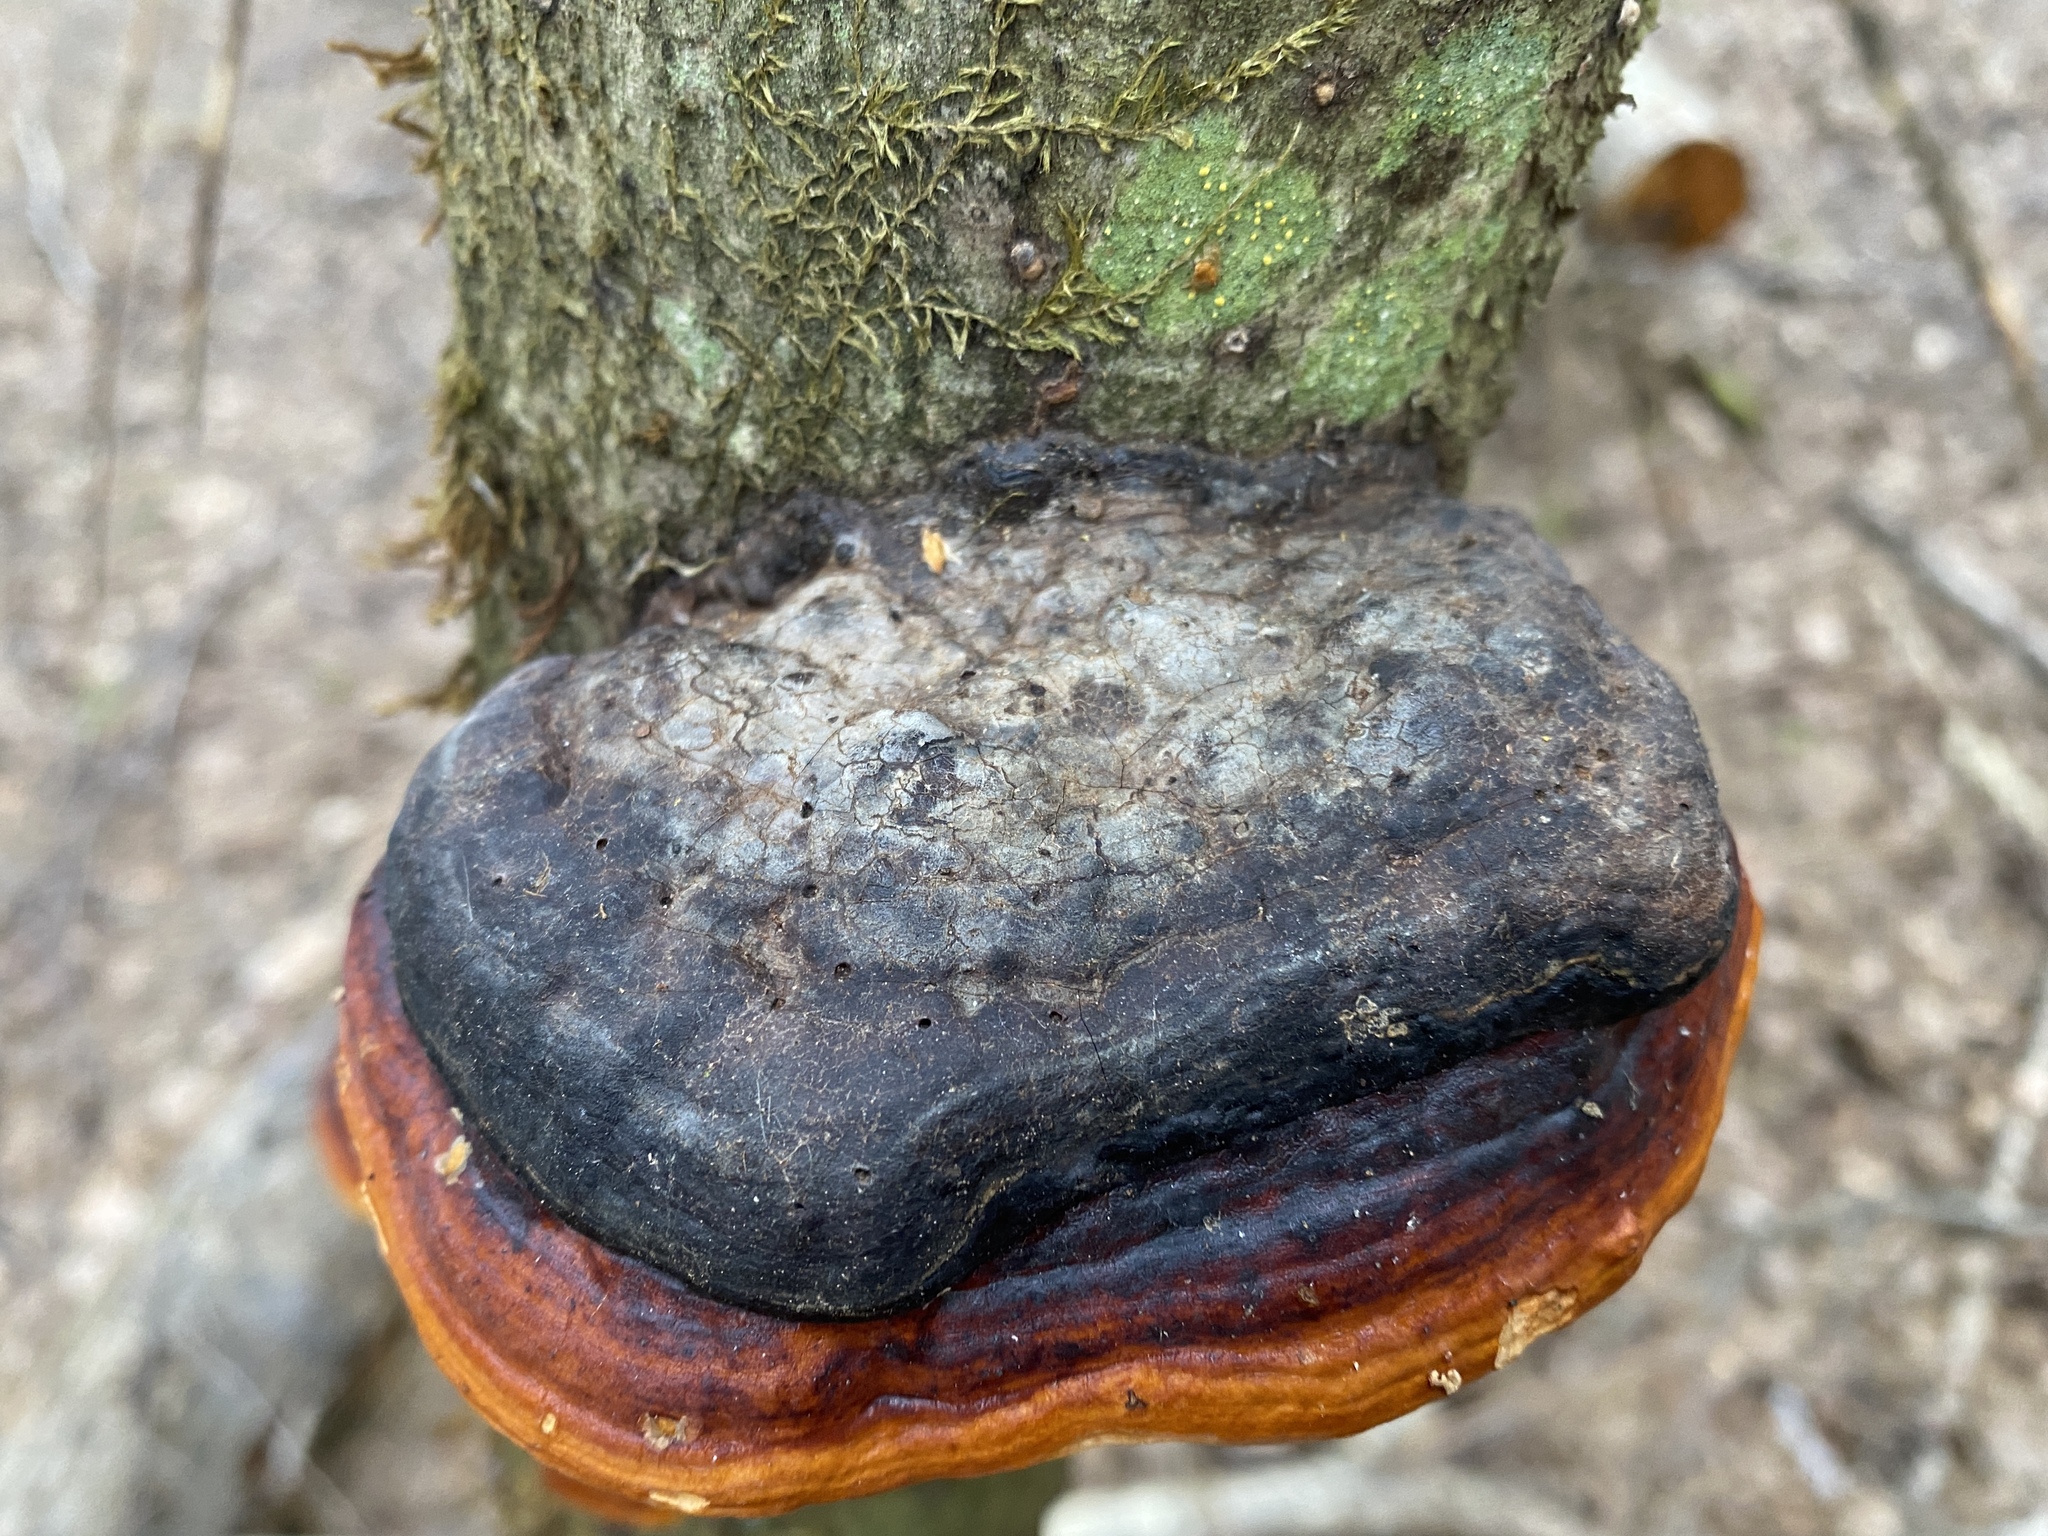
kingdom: Fungi
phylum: Basidiomycota
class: Agaricomycetes
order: Polyporales
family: Fomitopsidaceae
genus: Fomitopsis
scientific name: Fomitopsis pinicola
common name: Red-belted bracket
